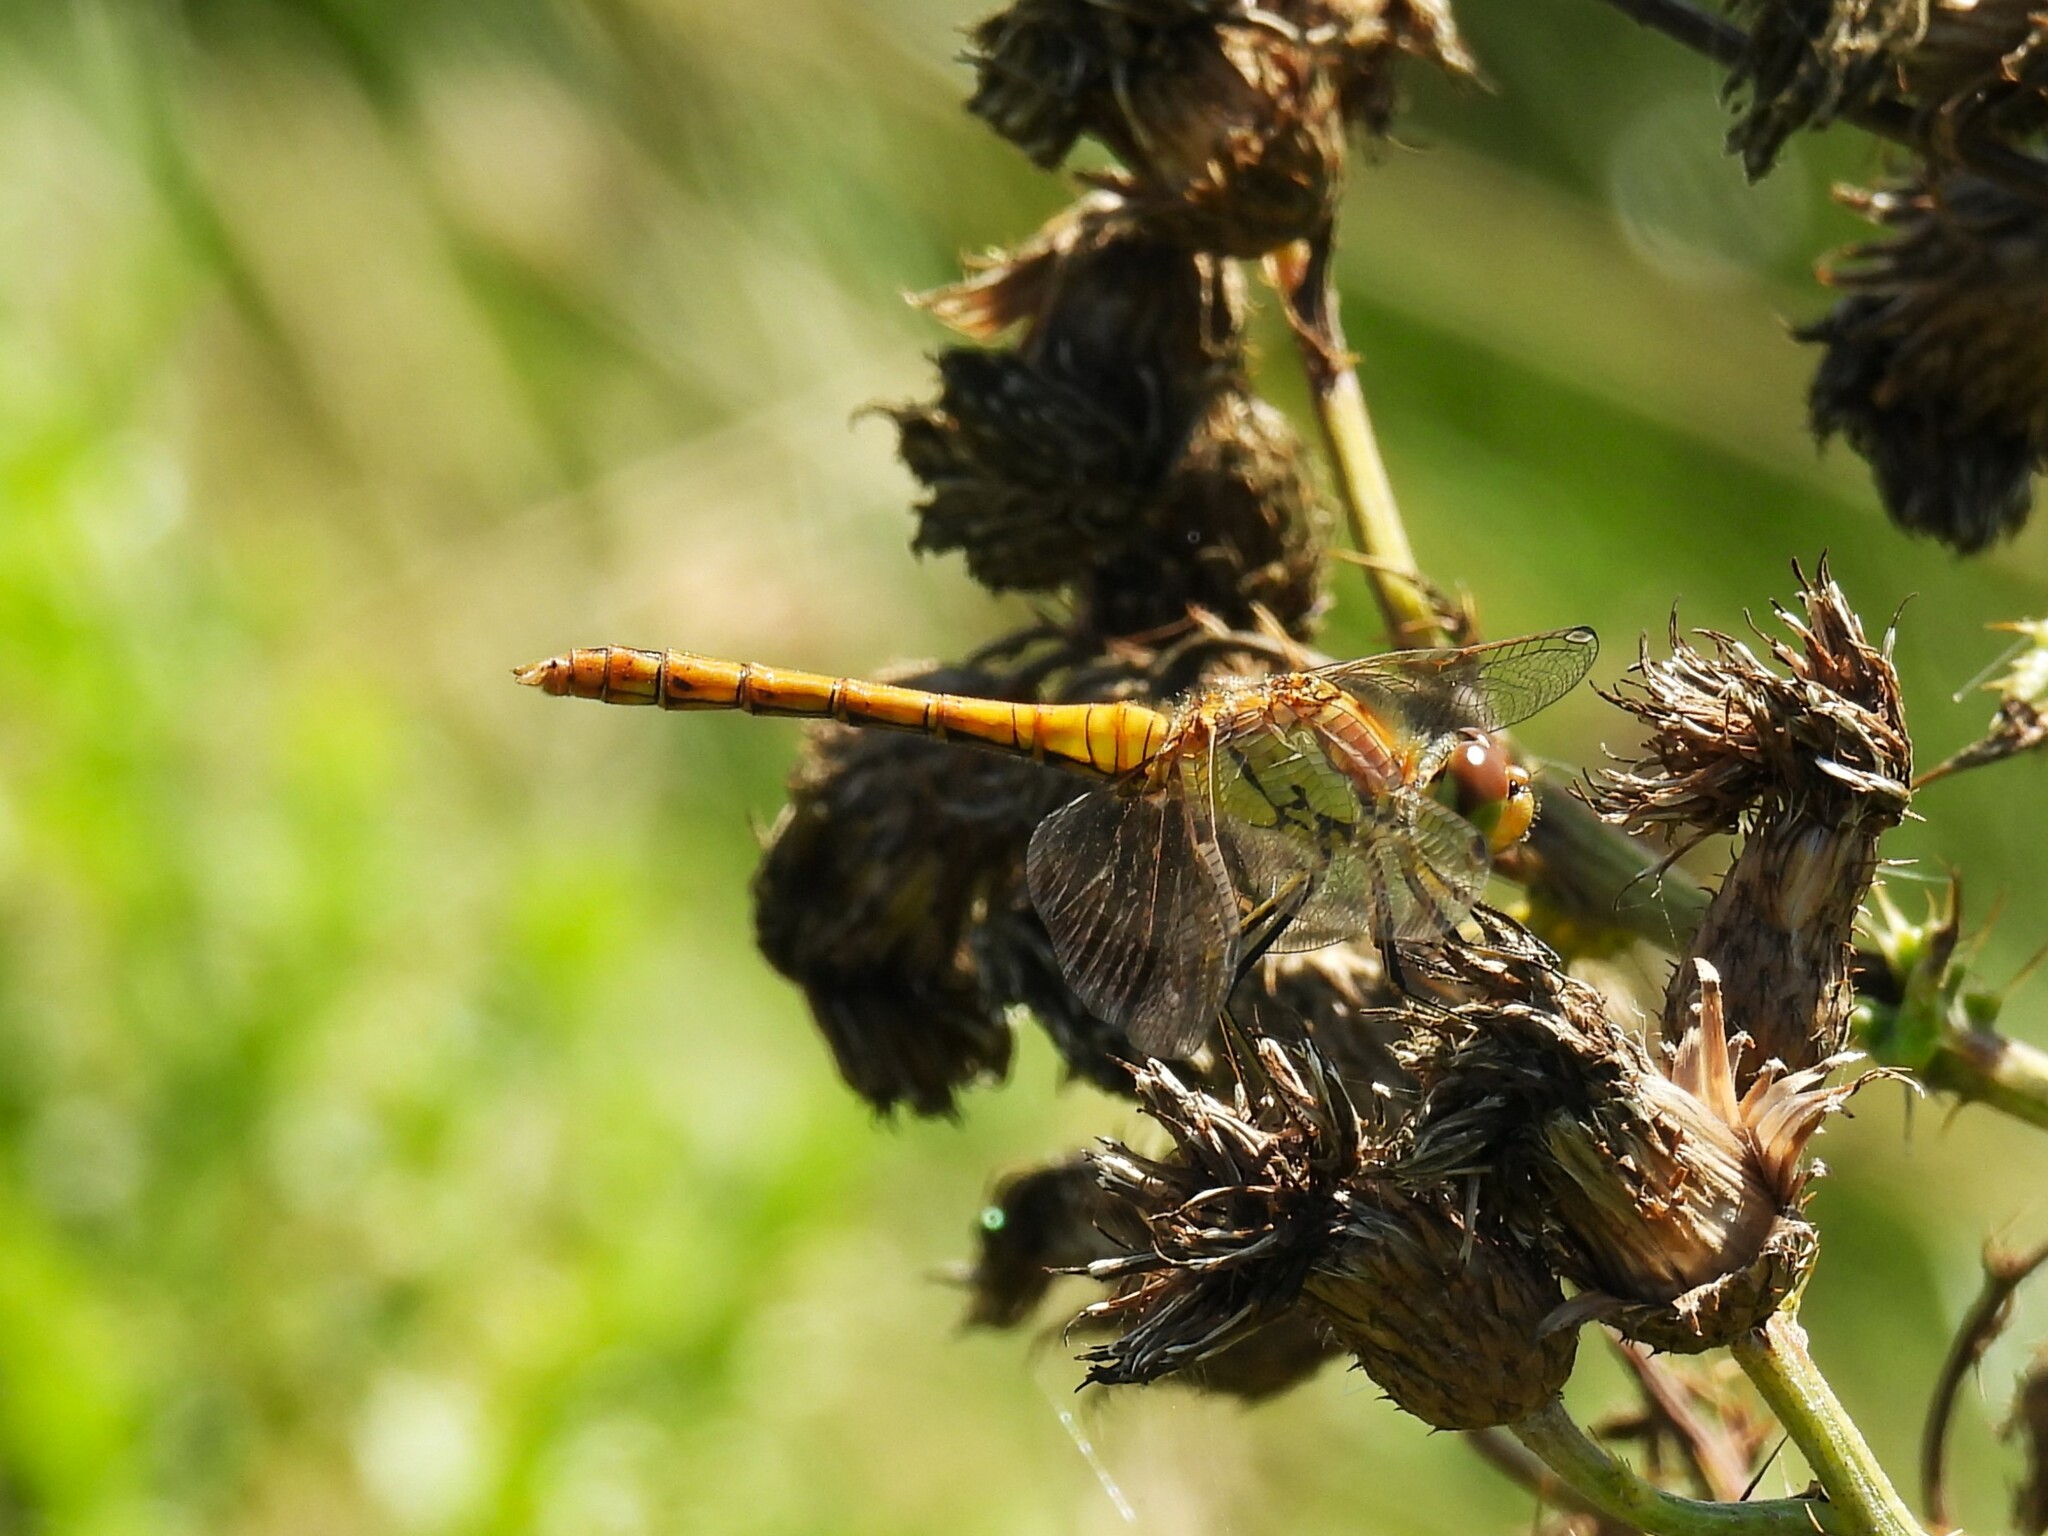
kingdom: Animalia
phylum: Arthropoda
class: Insecta
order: Odonata
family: Libellulidae
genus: Sympetrum
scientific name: Sympetrum striolatum
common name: Common darter
